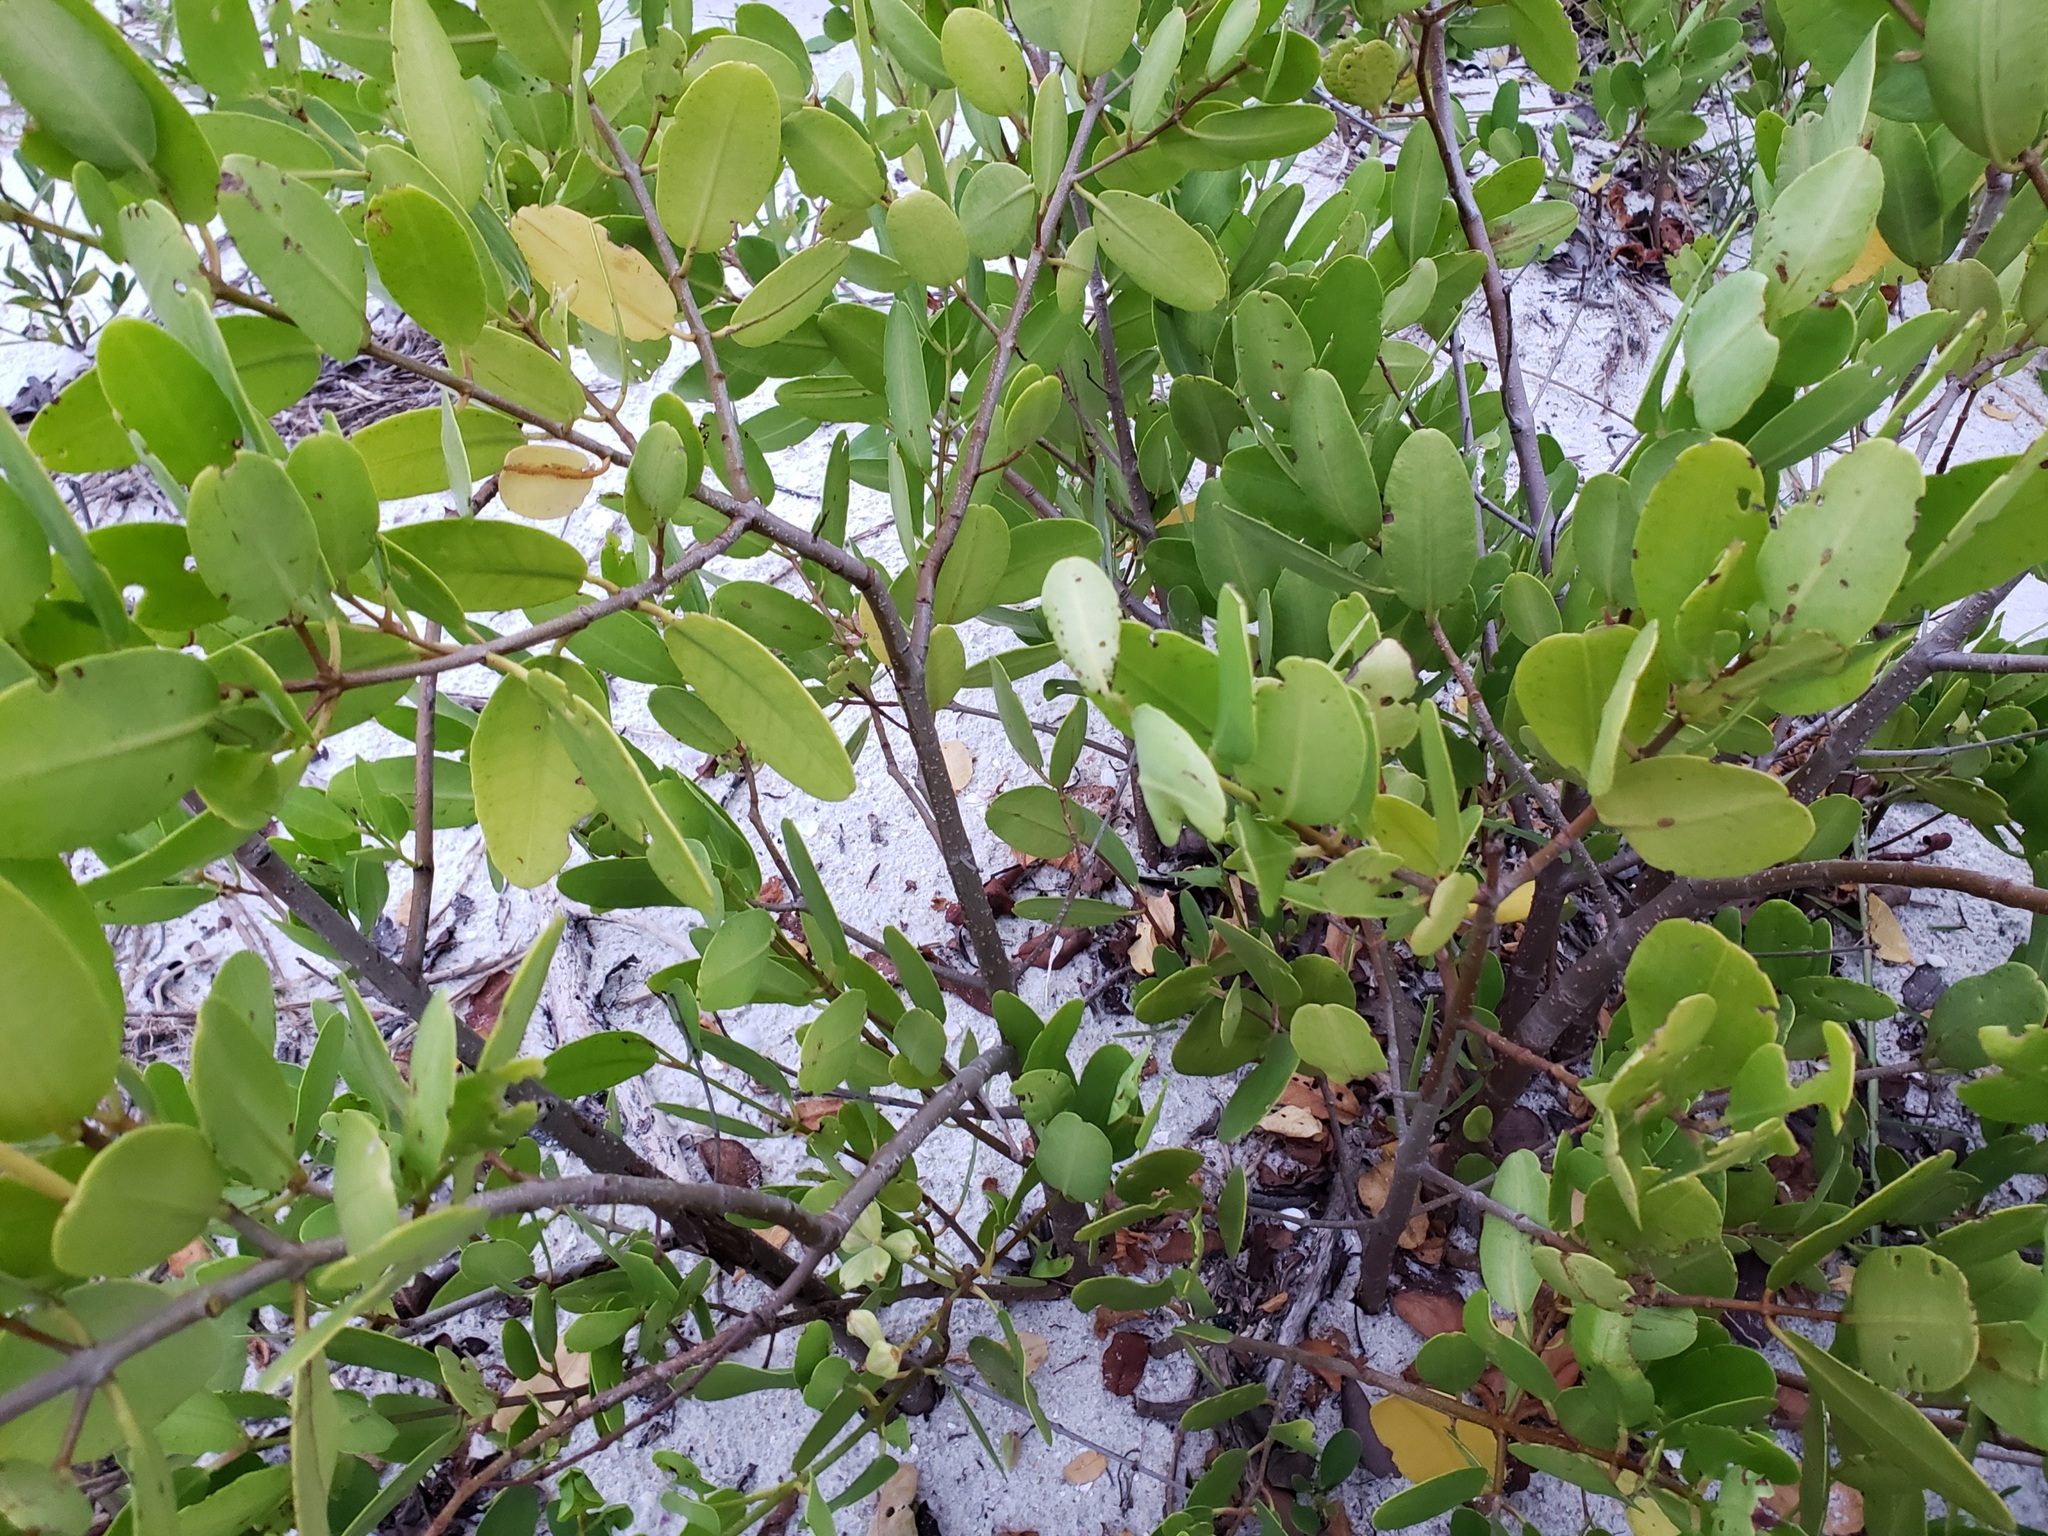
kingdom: Plantae
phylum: Tracheophyta
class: Magnoliopsida
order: Myrtales
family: Combretaceae
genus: Laguncularia
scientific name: Laguncularia racemosa
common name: White mangrove
